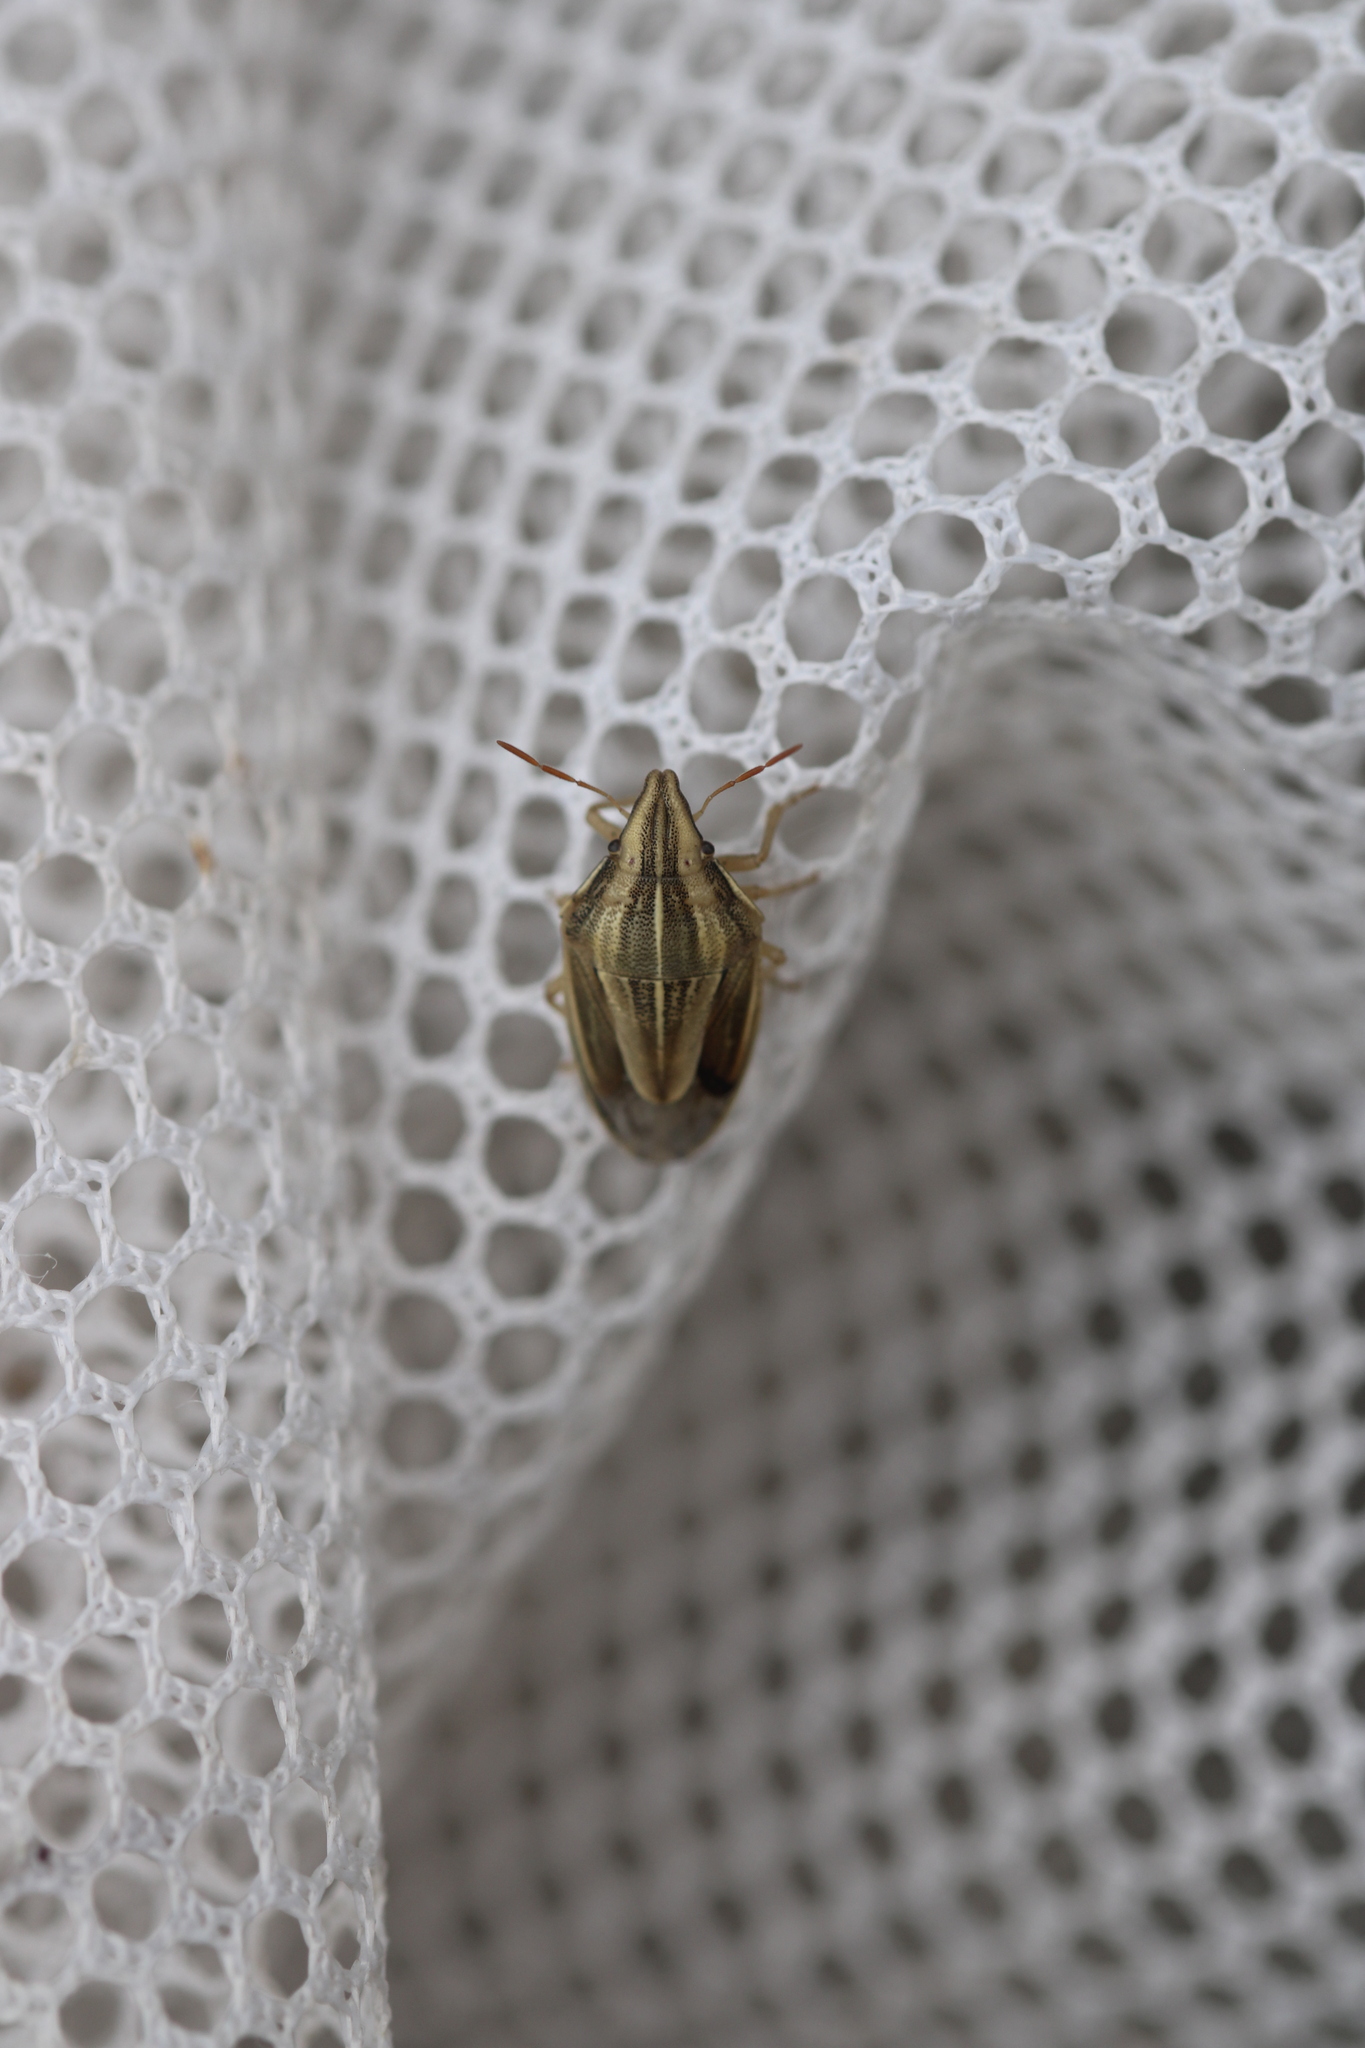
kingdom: Animalia
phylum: Arthropoda
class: Insecta
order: Hemiptera
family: Pentatomidae
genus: Aelia
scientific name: Aelia acuminata
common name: Bishop's mitre
